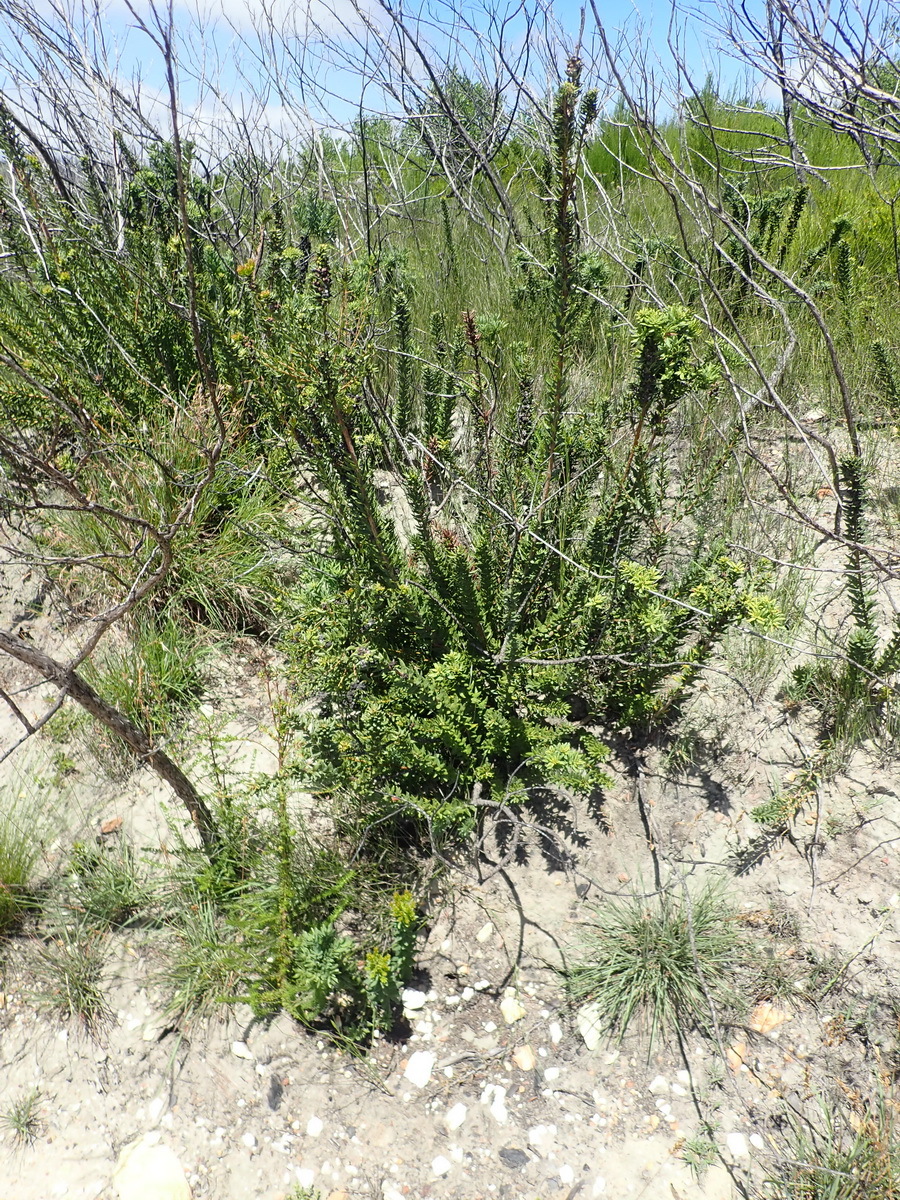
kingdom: Plantae
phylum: Tracheophyta
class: Magnoliopsida
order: Fagales
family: Myricaceae
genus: Morella
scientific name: Morella humilis
